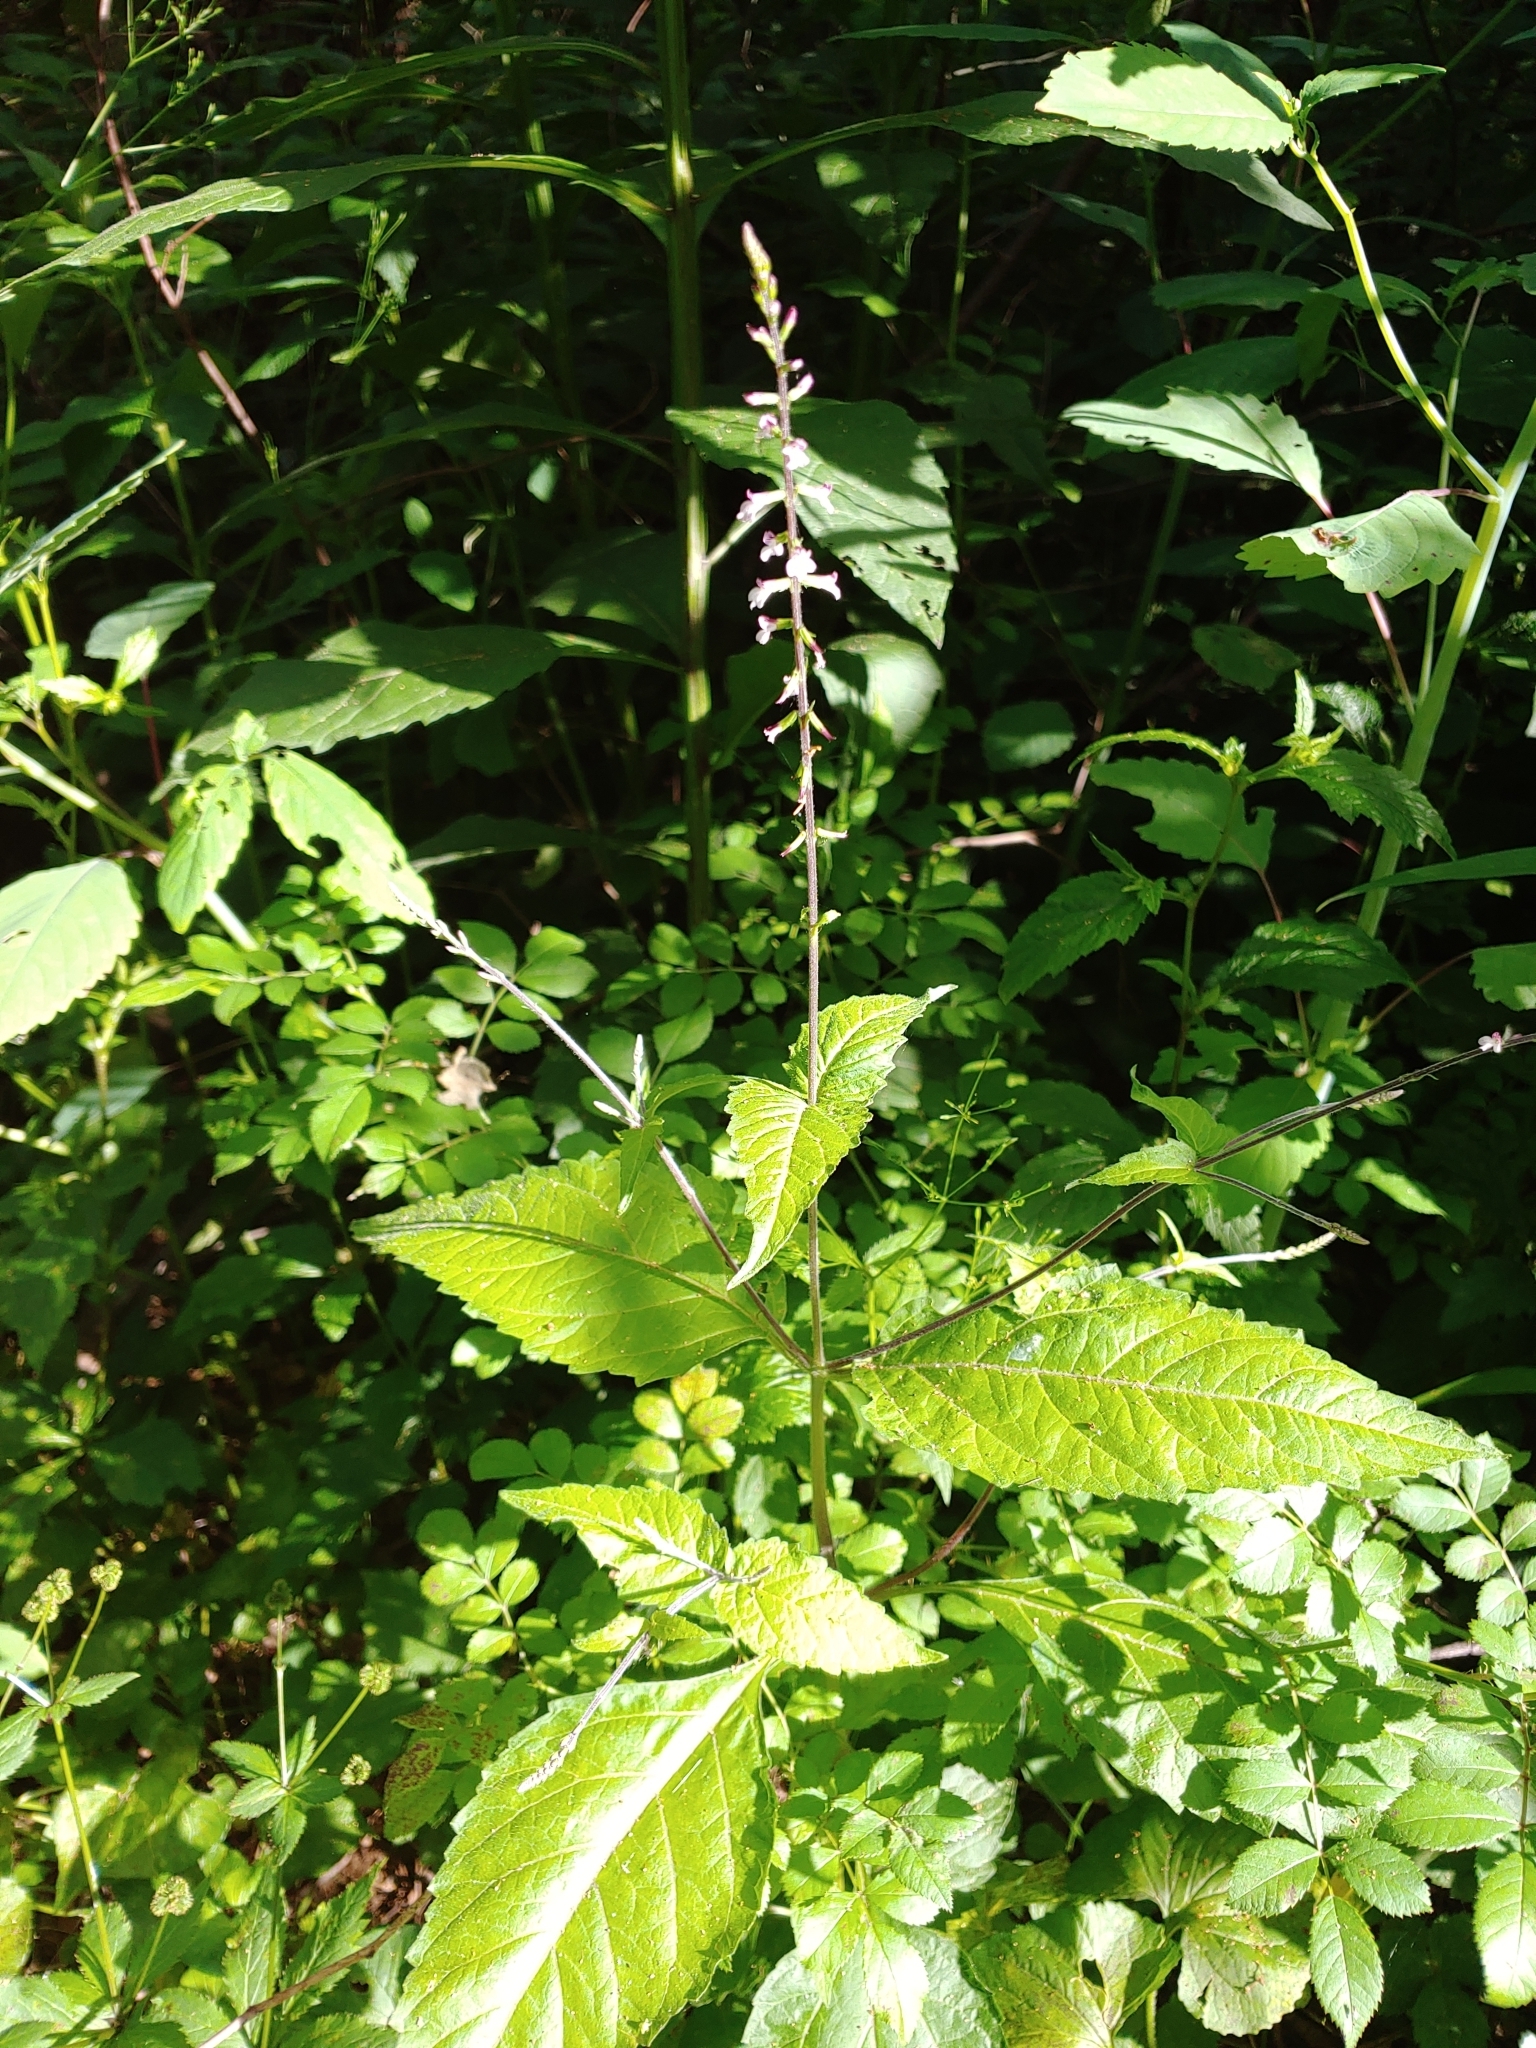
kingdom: Plantae
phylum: Tracheophyta
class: Magnoliopsida
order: Lamiales
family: Phrymaceae
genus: Phryma
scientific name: Phryma leptostachya
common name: American lopseed
